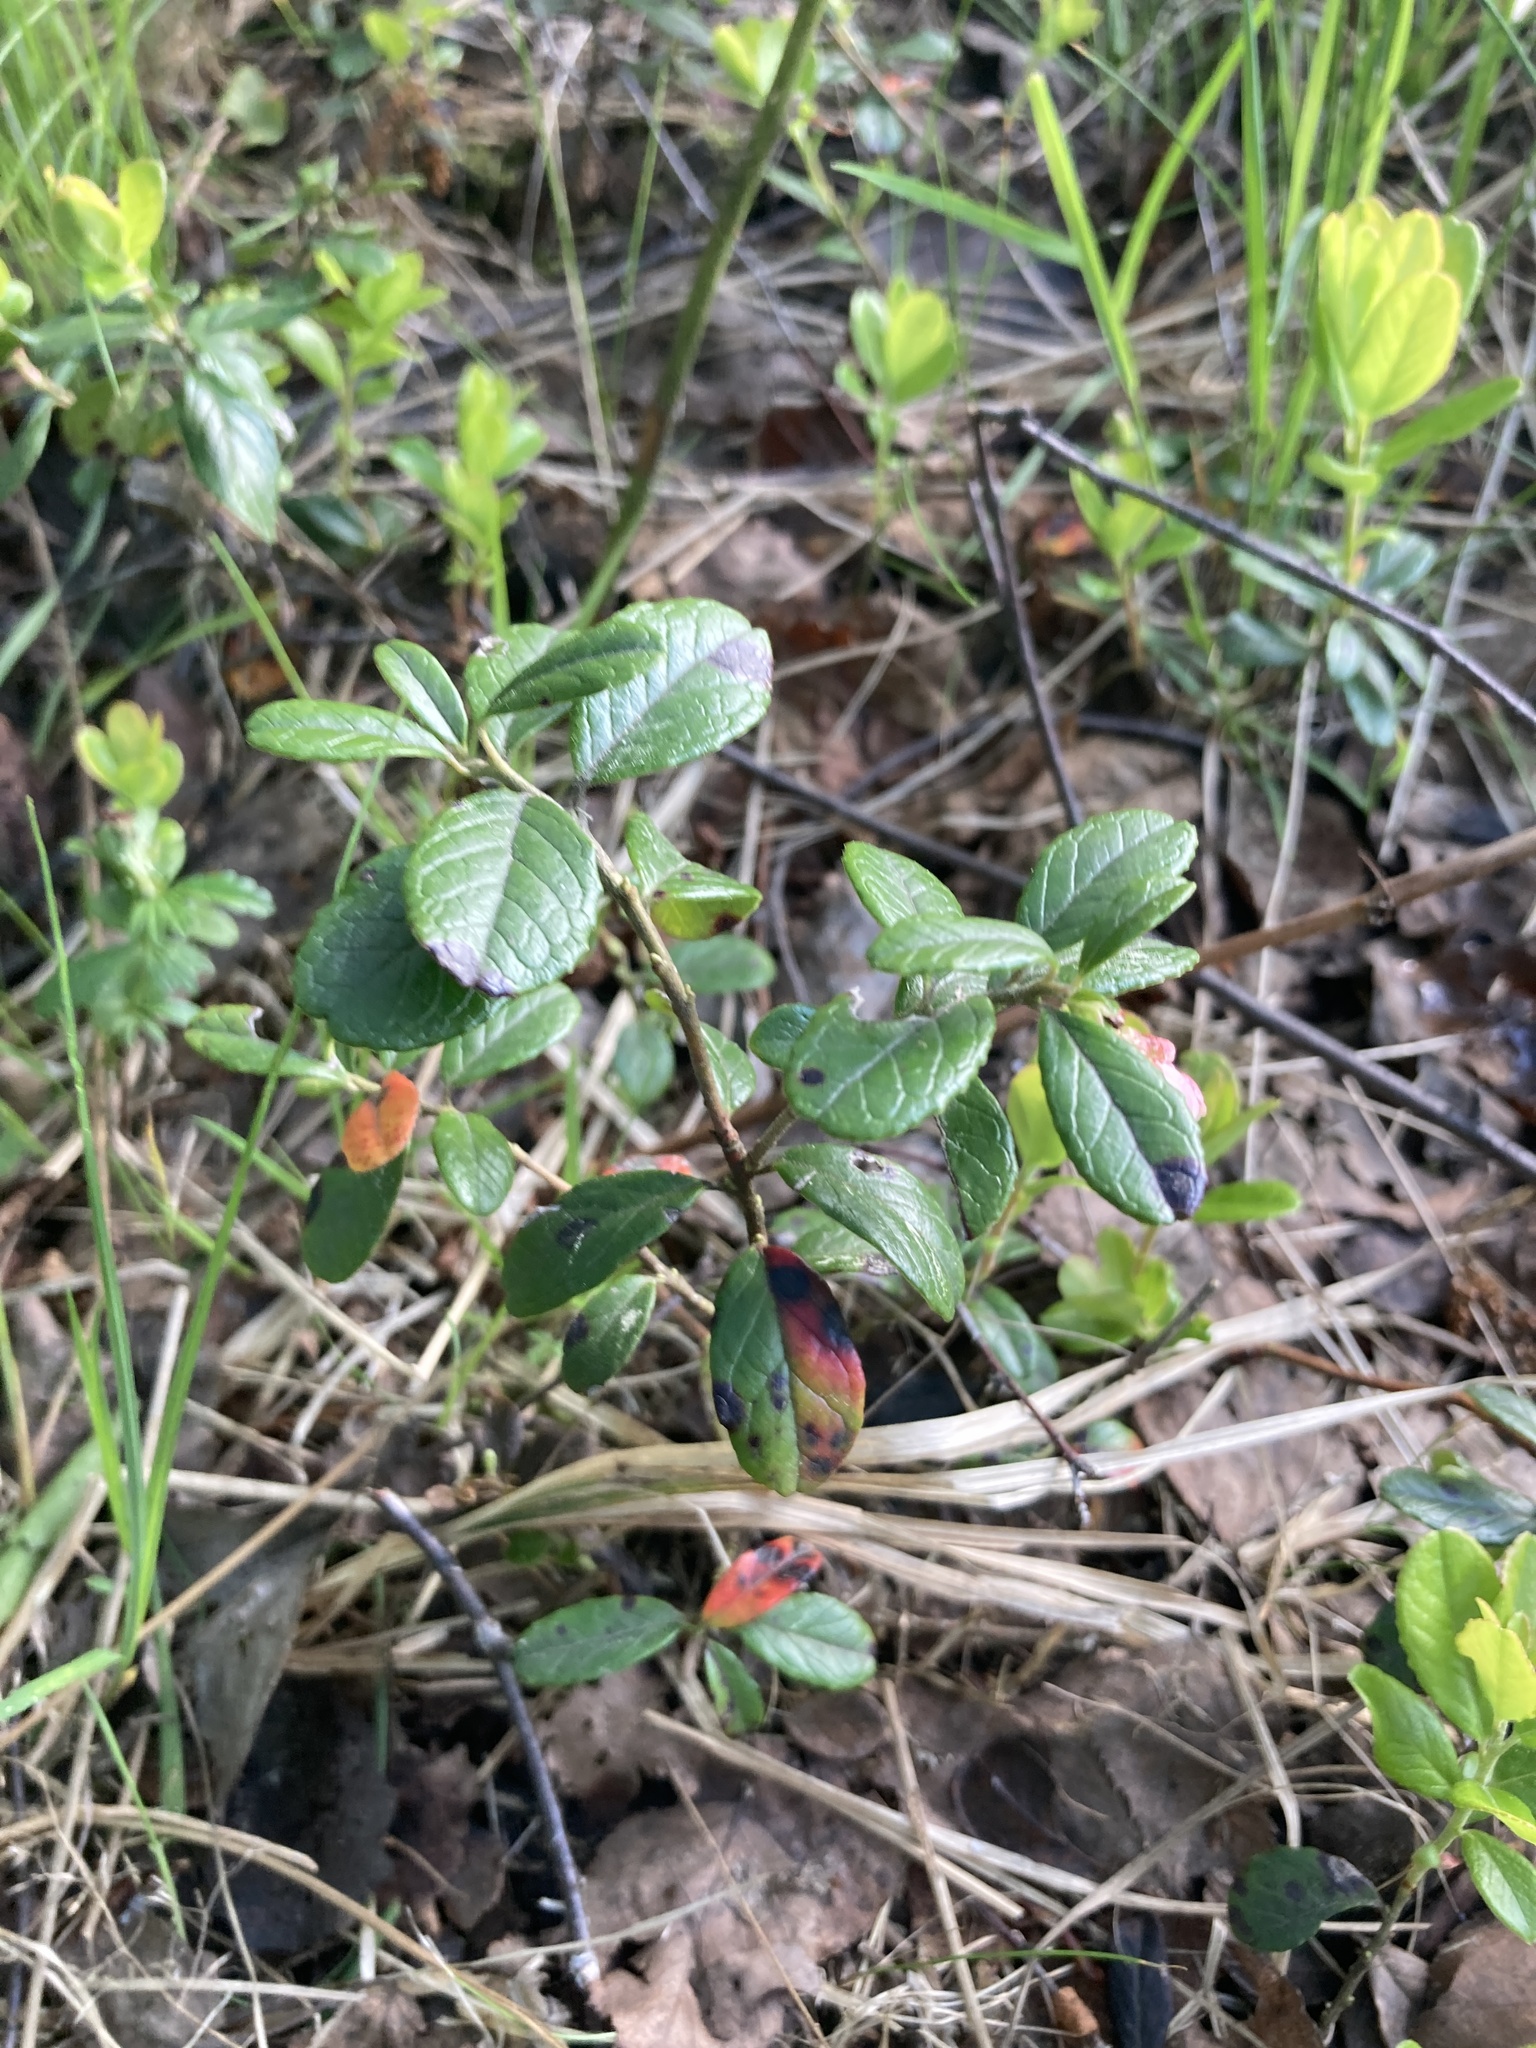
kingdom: Plantae
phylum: Tracheophyta
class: Magnoliopsida
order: Ericales
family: Ericaceae
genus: Vaccinium
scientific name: Vaccinium vitis-idaea
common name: Cowberry
